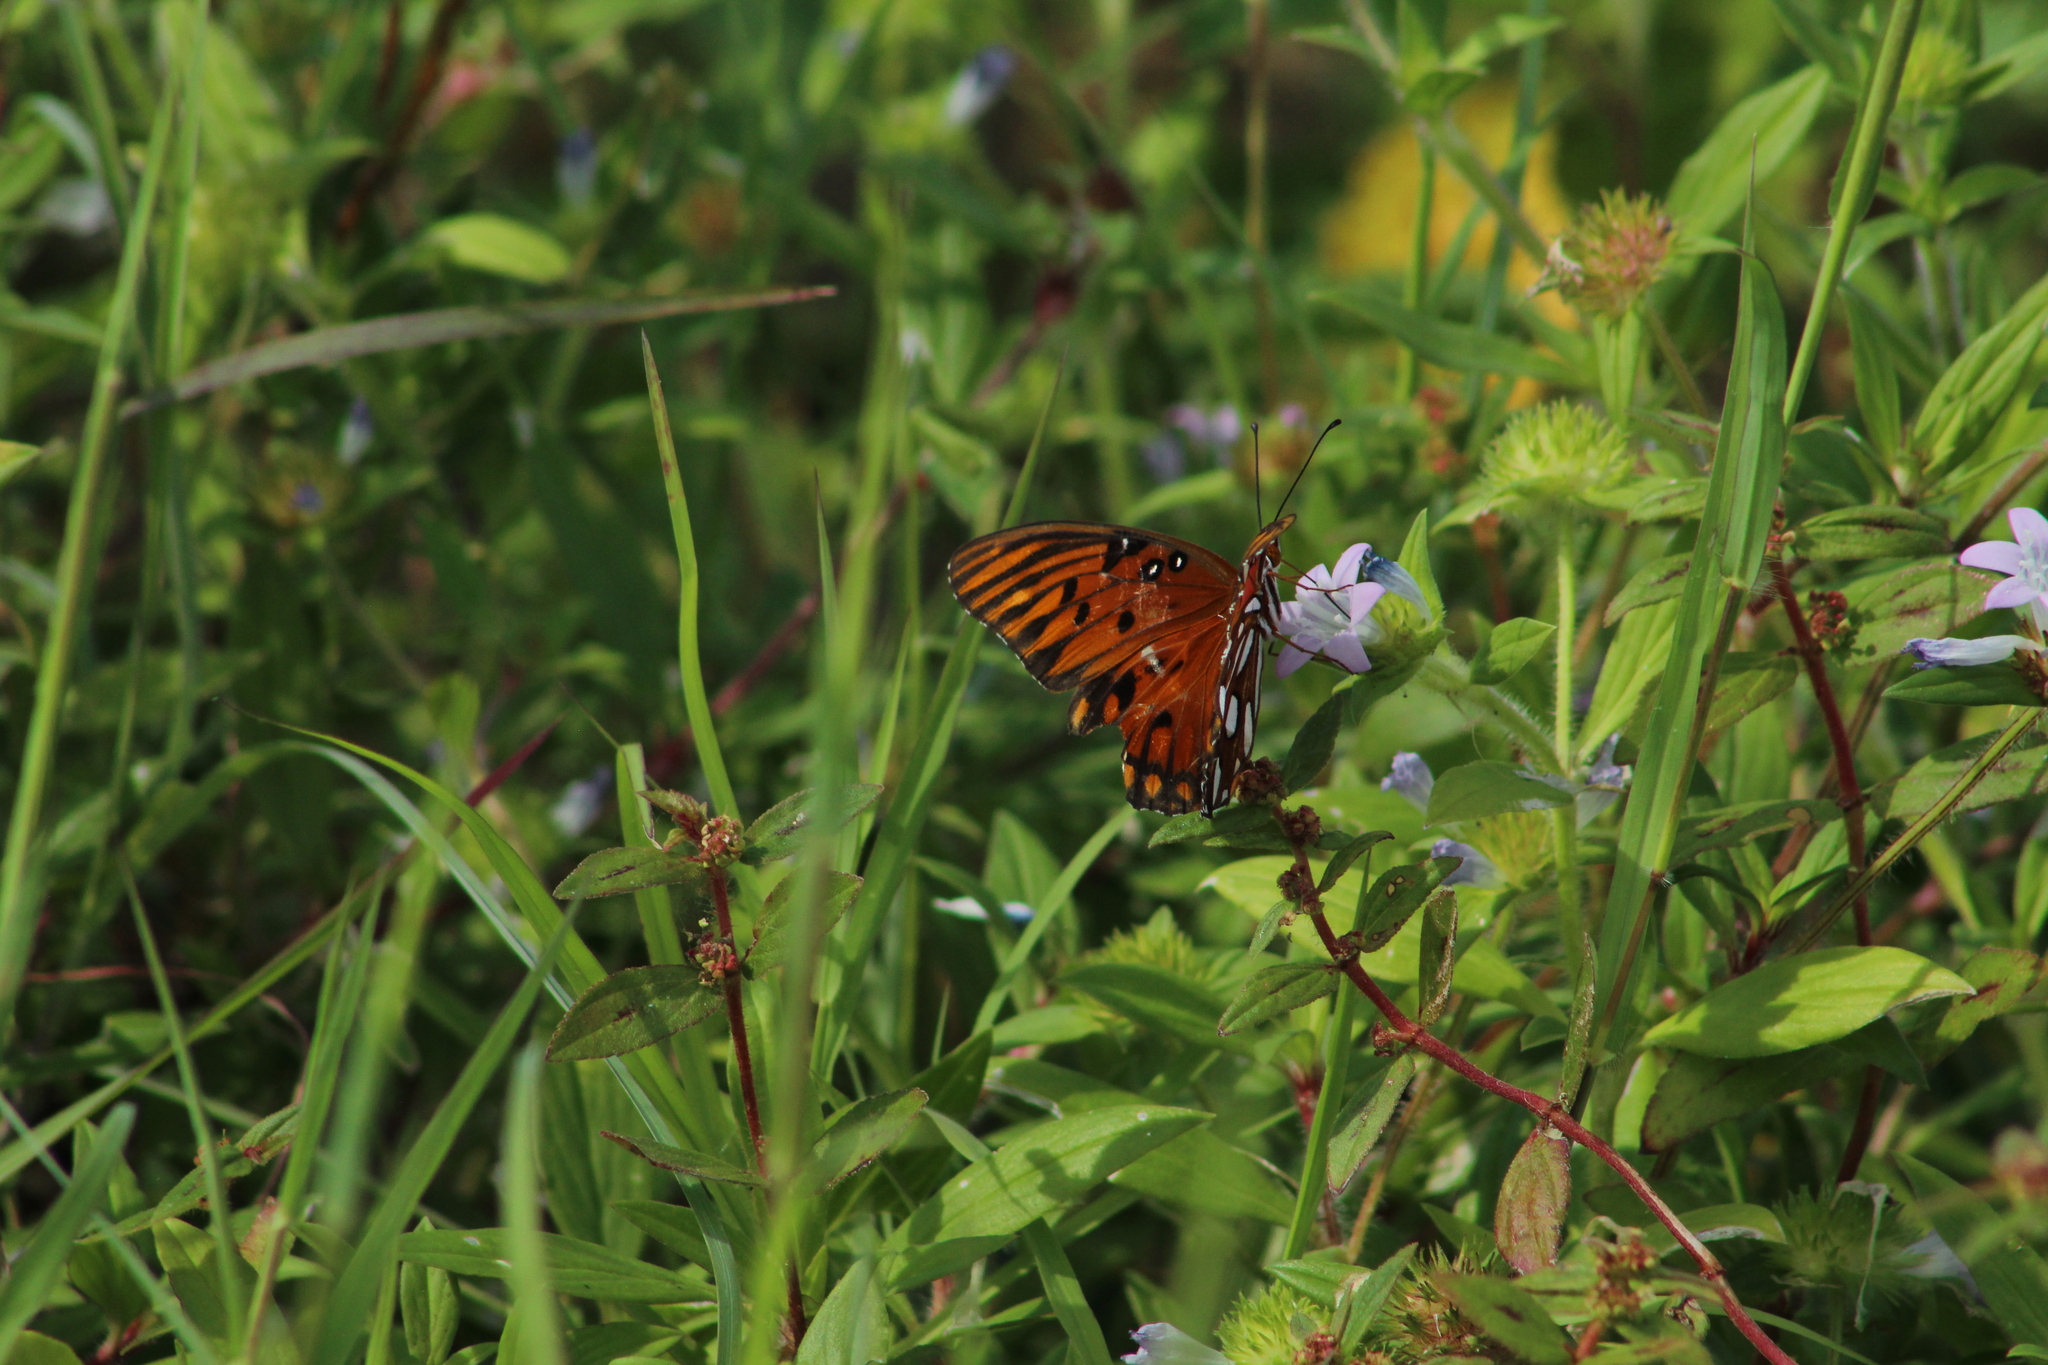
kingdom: Animalia
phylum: Arthropoda
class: Insecta
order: Lepidoptera
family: Nymphalidae
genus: Dione
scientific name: Dione vanillae
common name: Gulf fritillary
